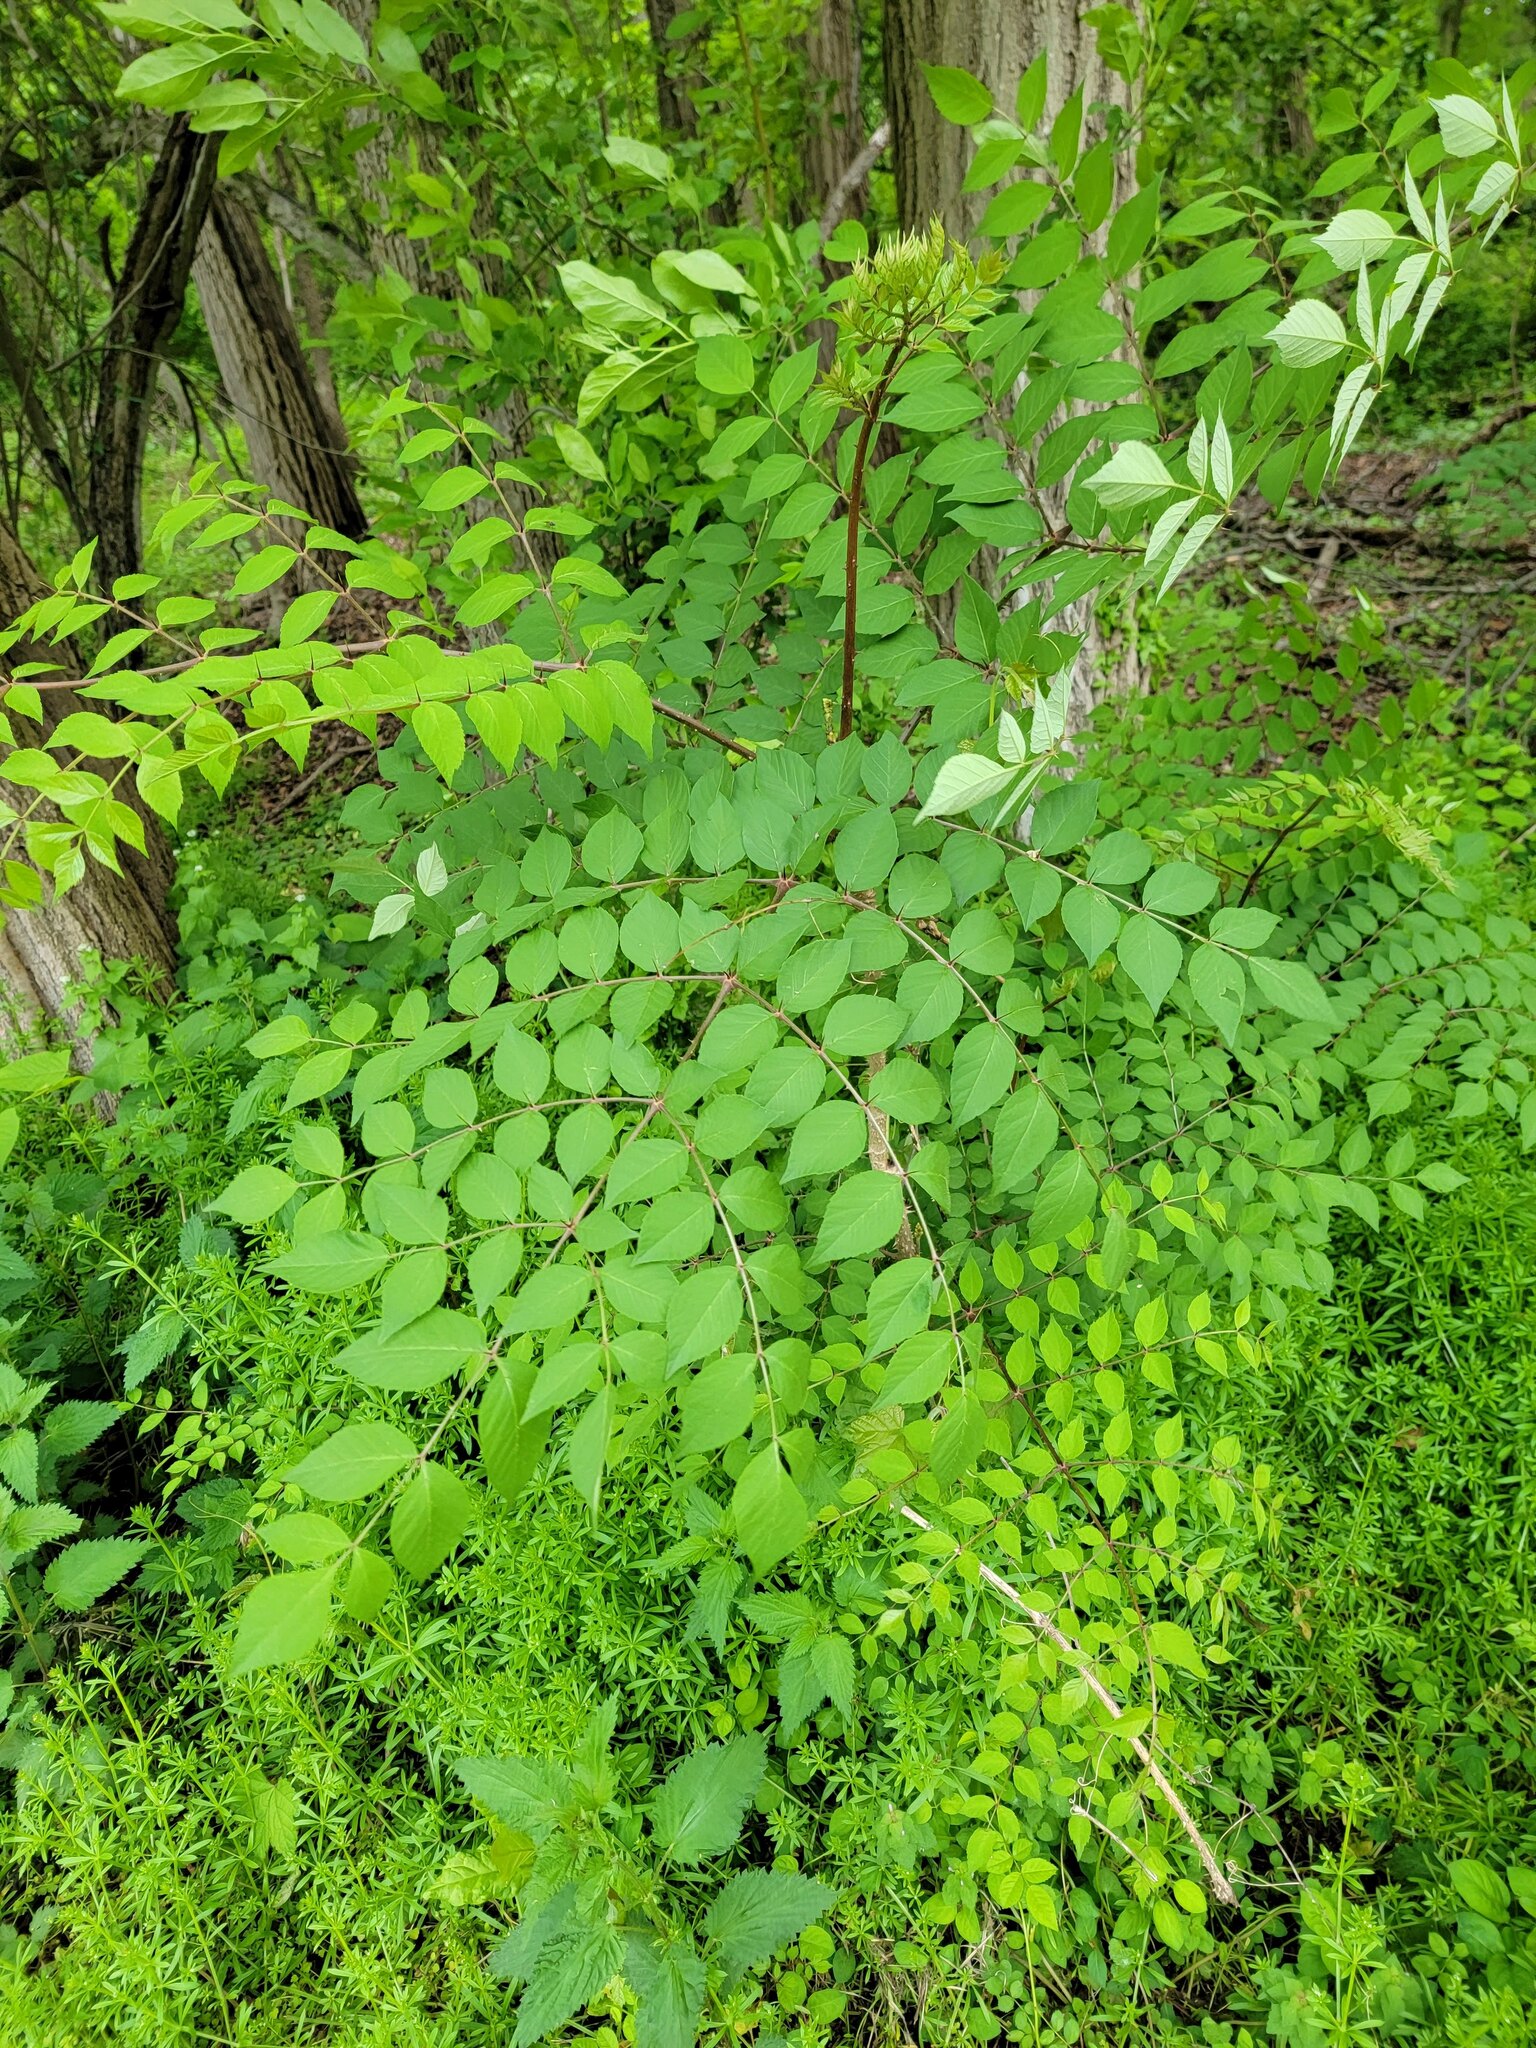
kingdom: Plantae
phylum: Tracheophyta
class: Magnoliopsida
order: Apiales
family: Araliaceae
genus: Aralia
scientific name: Aralia elata
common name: Japanese angelica-tree
